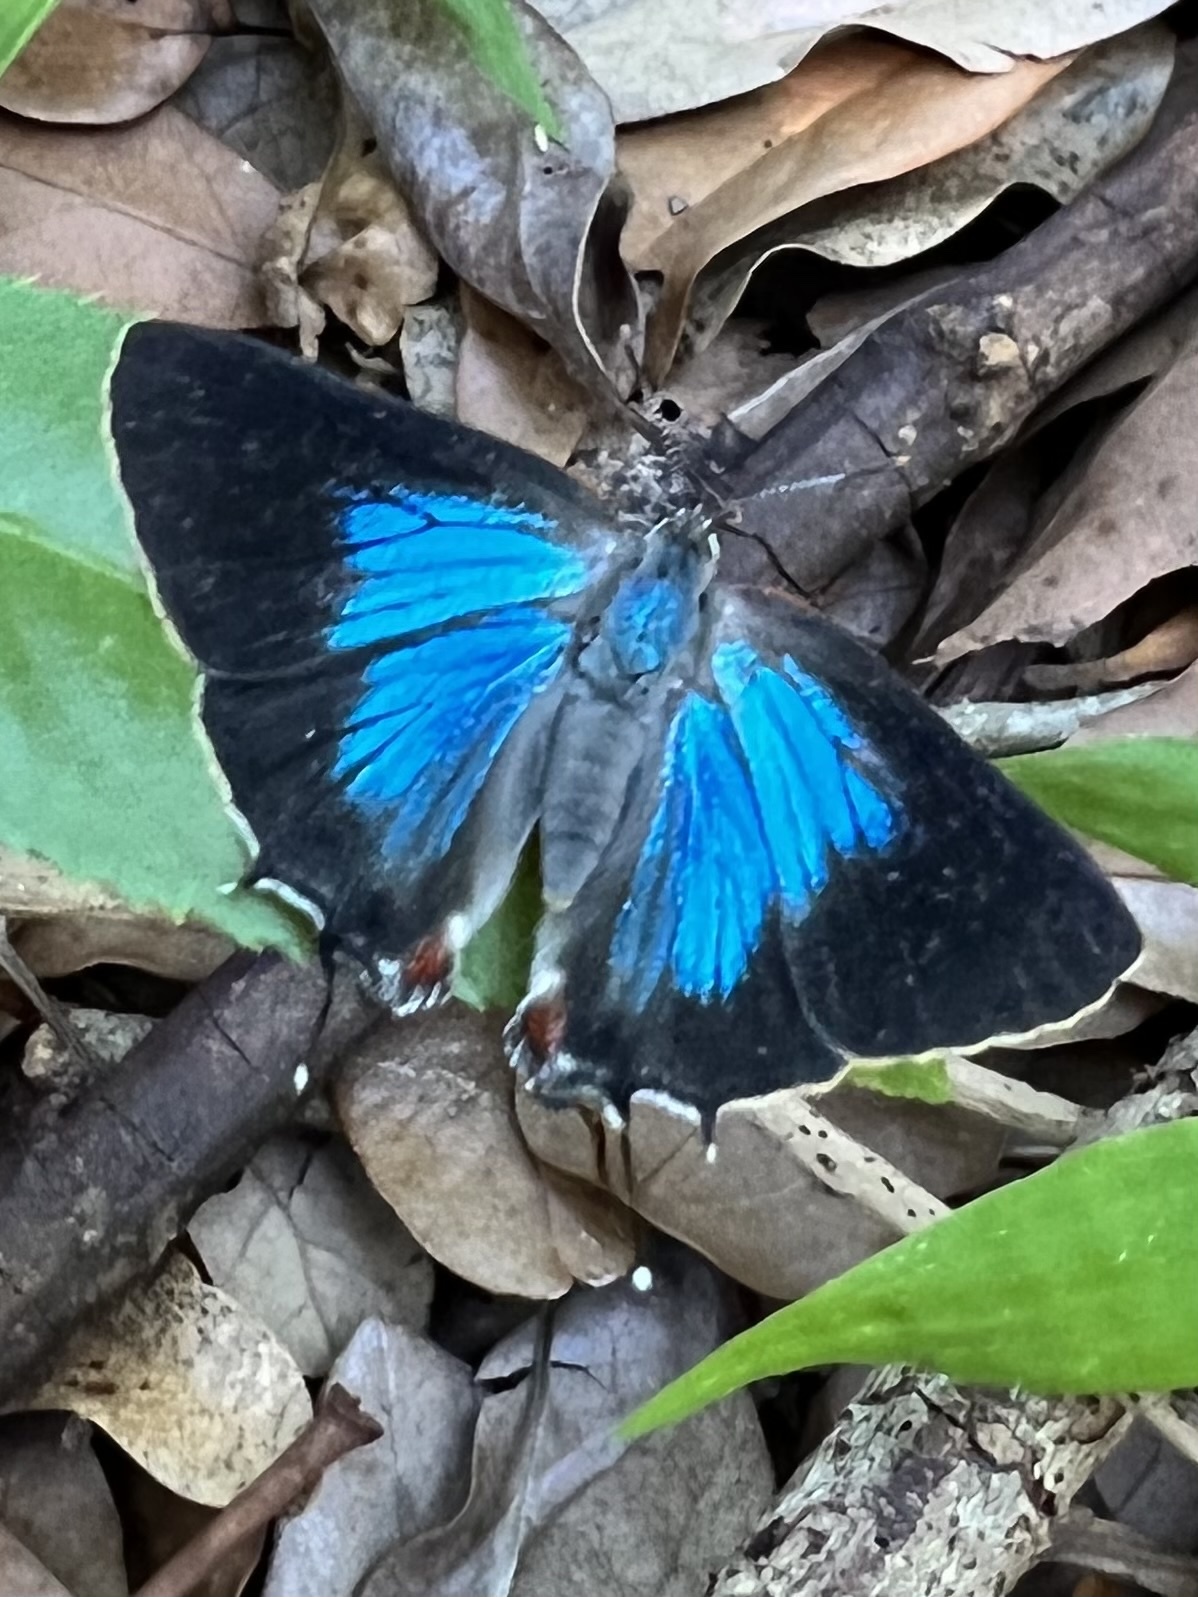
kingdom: Animalia
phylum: Arthropoda
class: Insecta
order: Lepidoptera
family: Lycaenidae
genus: Parrhasius
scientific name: Parrhasius m-album
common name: White m hairstreak
